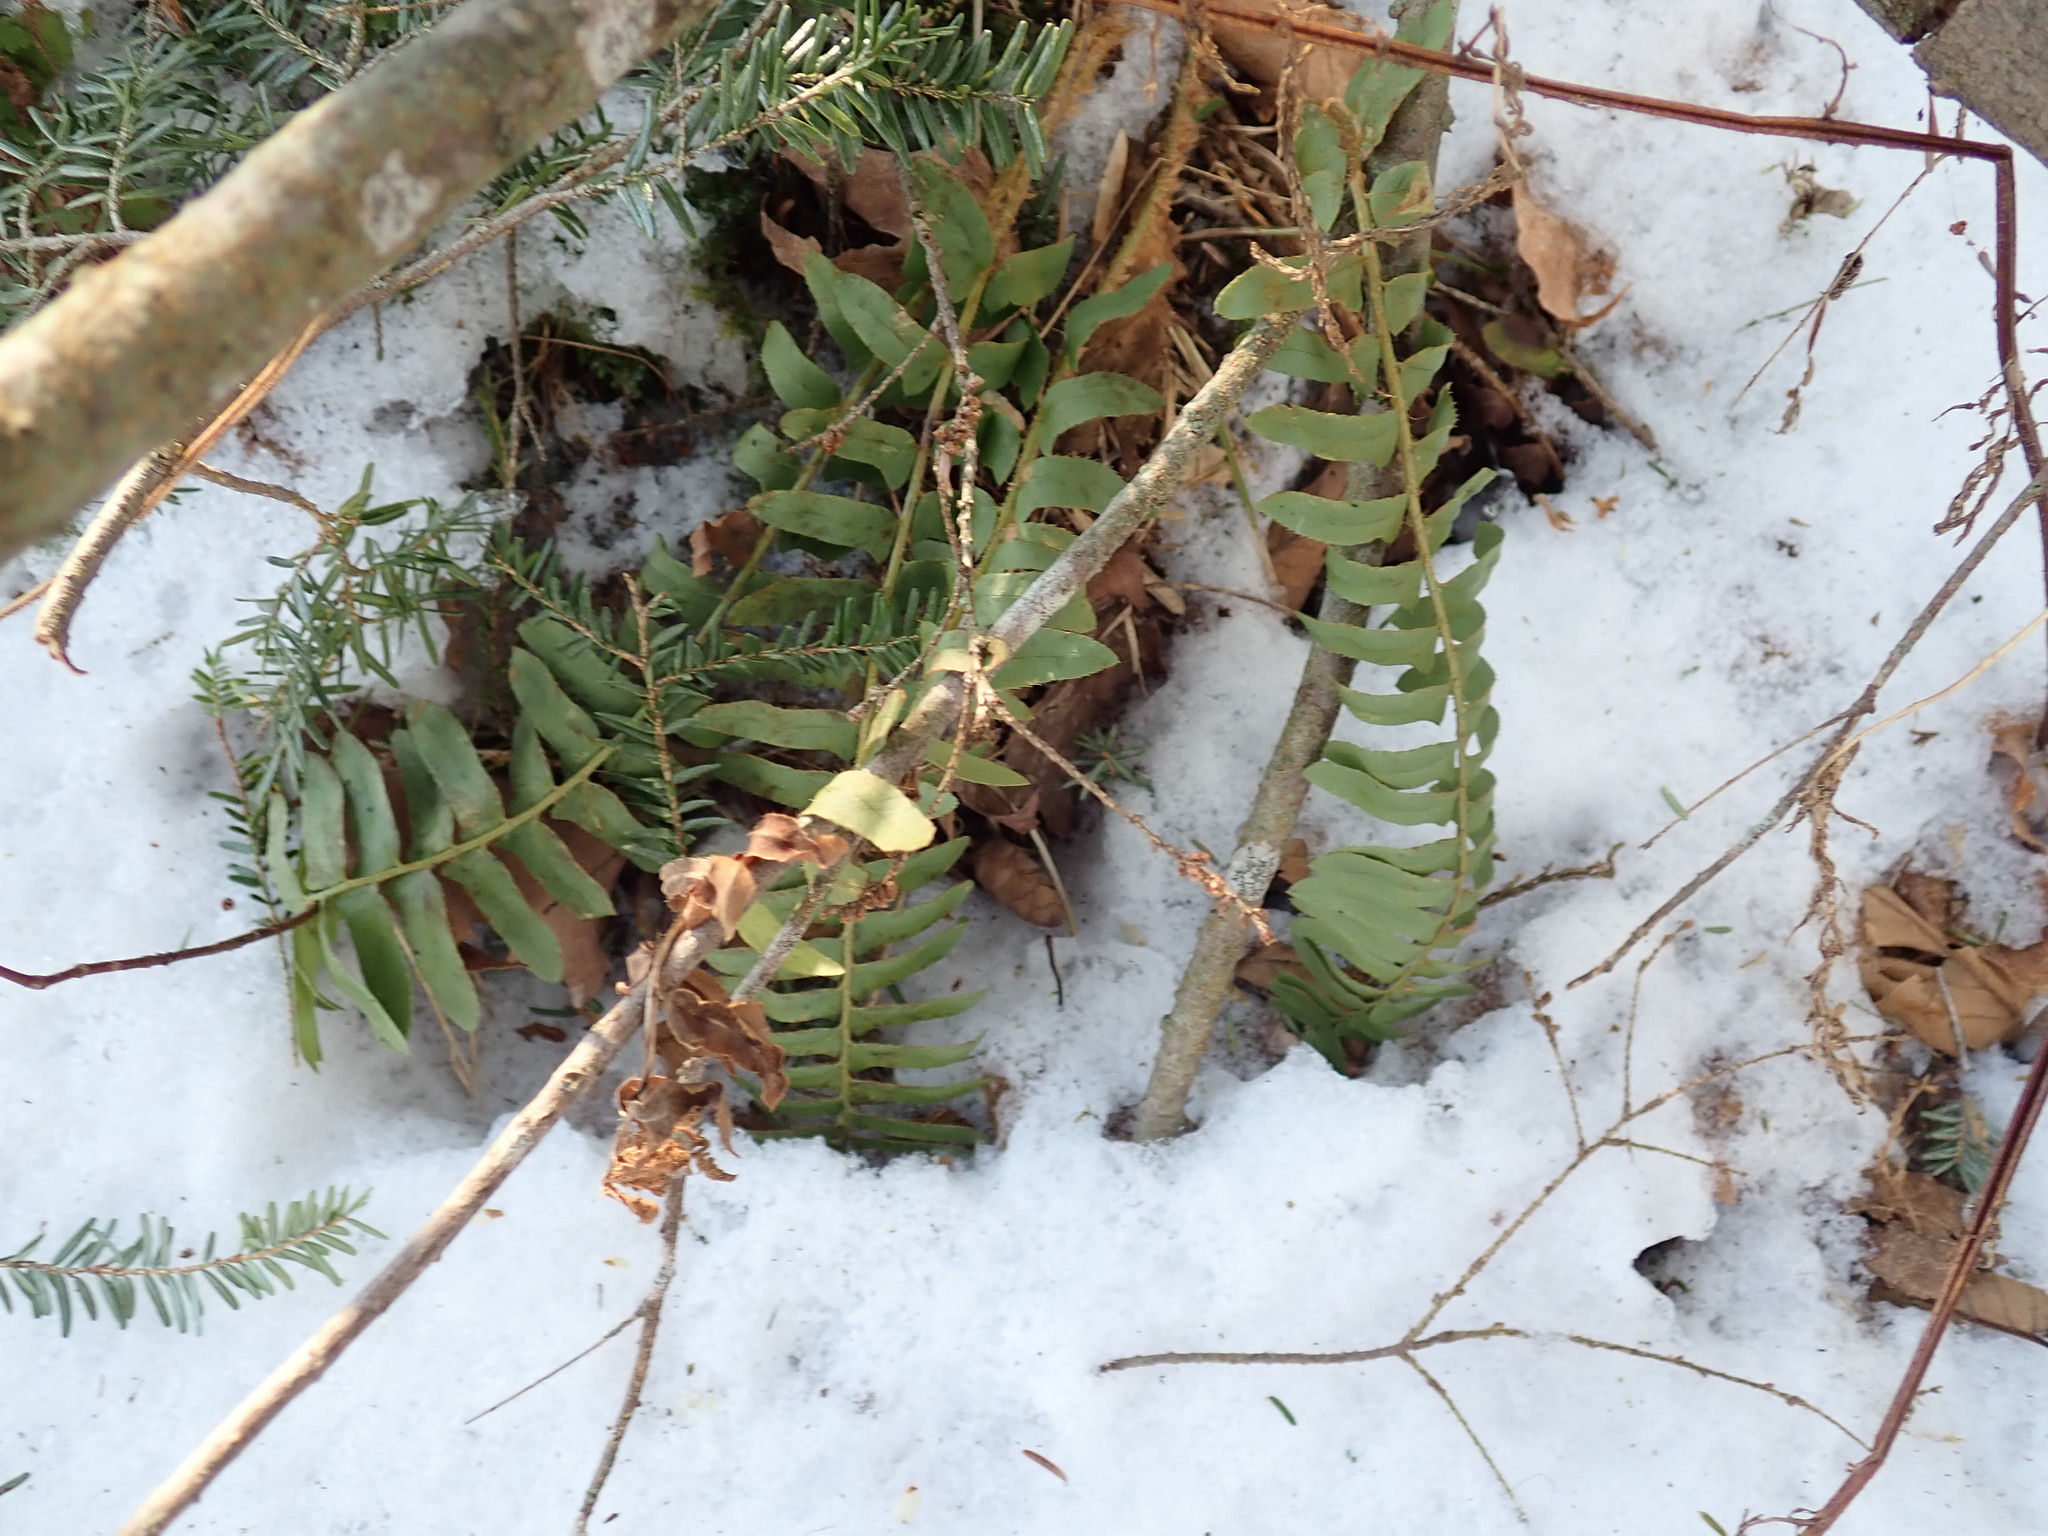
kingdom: Plantae
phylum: Tracheophyta
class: Polypodiopsida
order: Polypodiales
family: Dryopteridaceae
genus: Polystichum
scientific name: Polystichum acrostichoides
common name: Christmas fern
